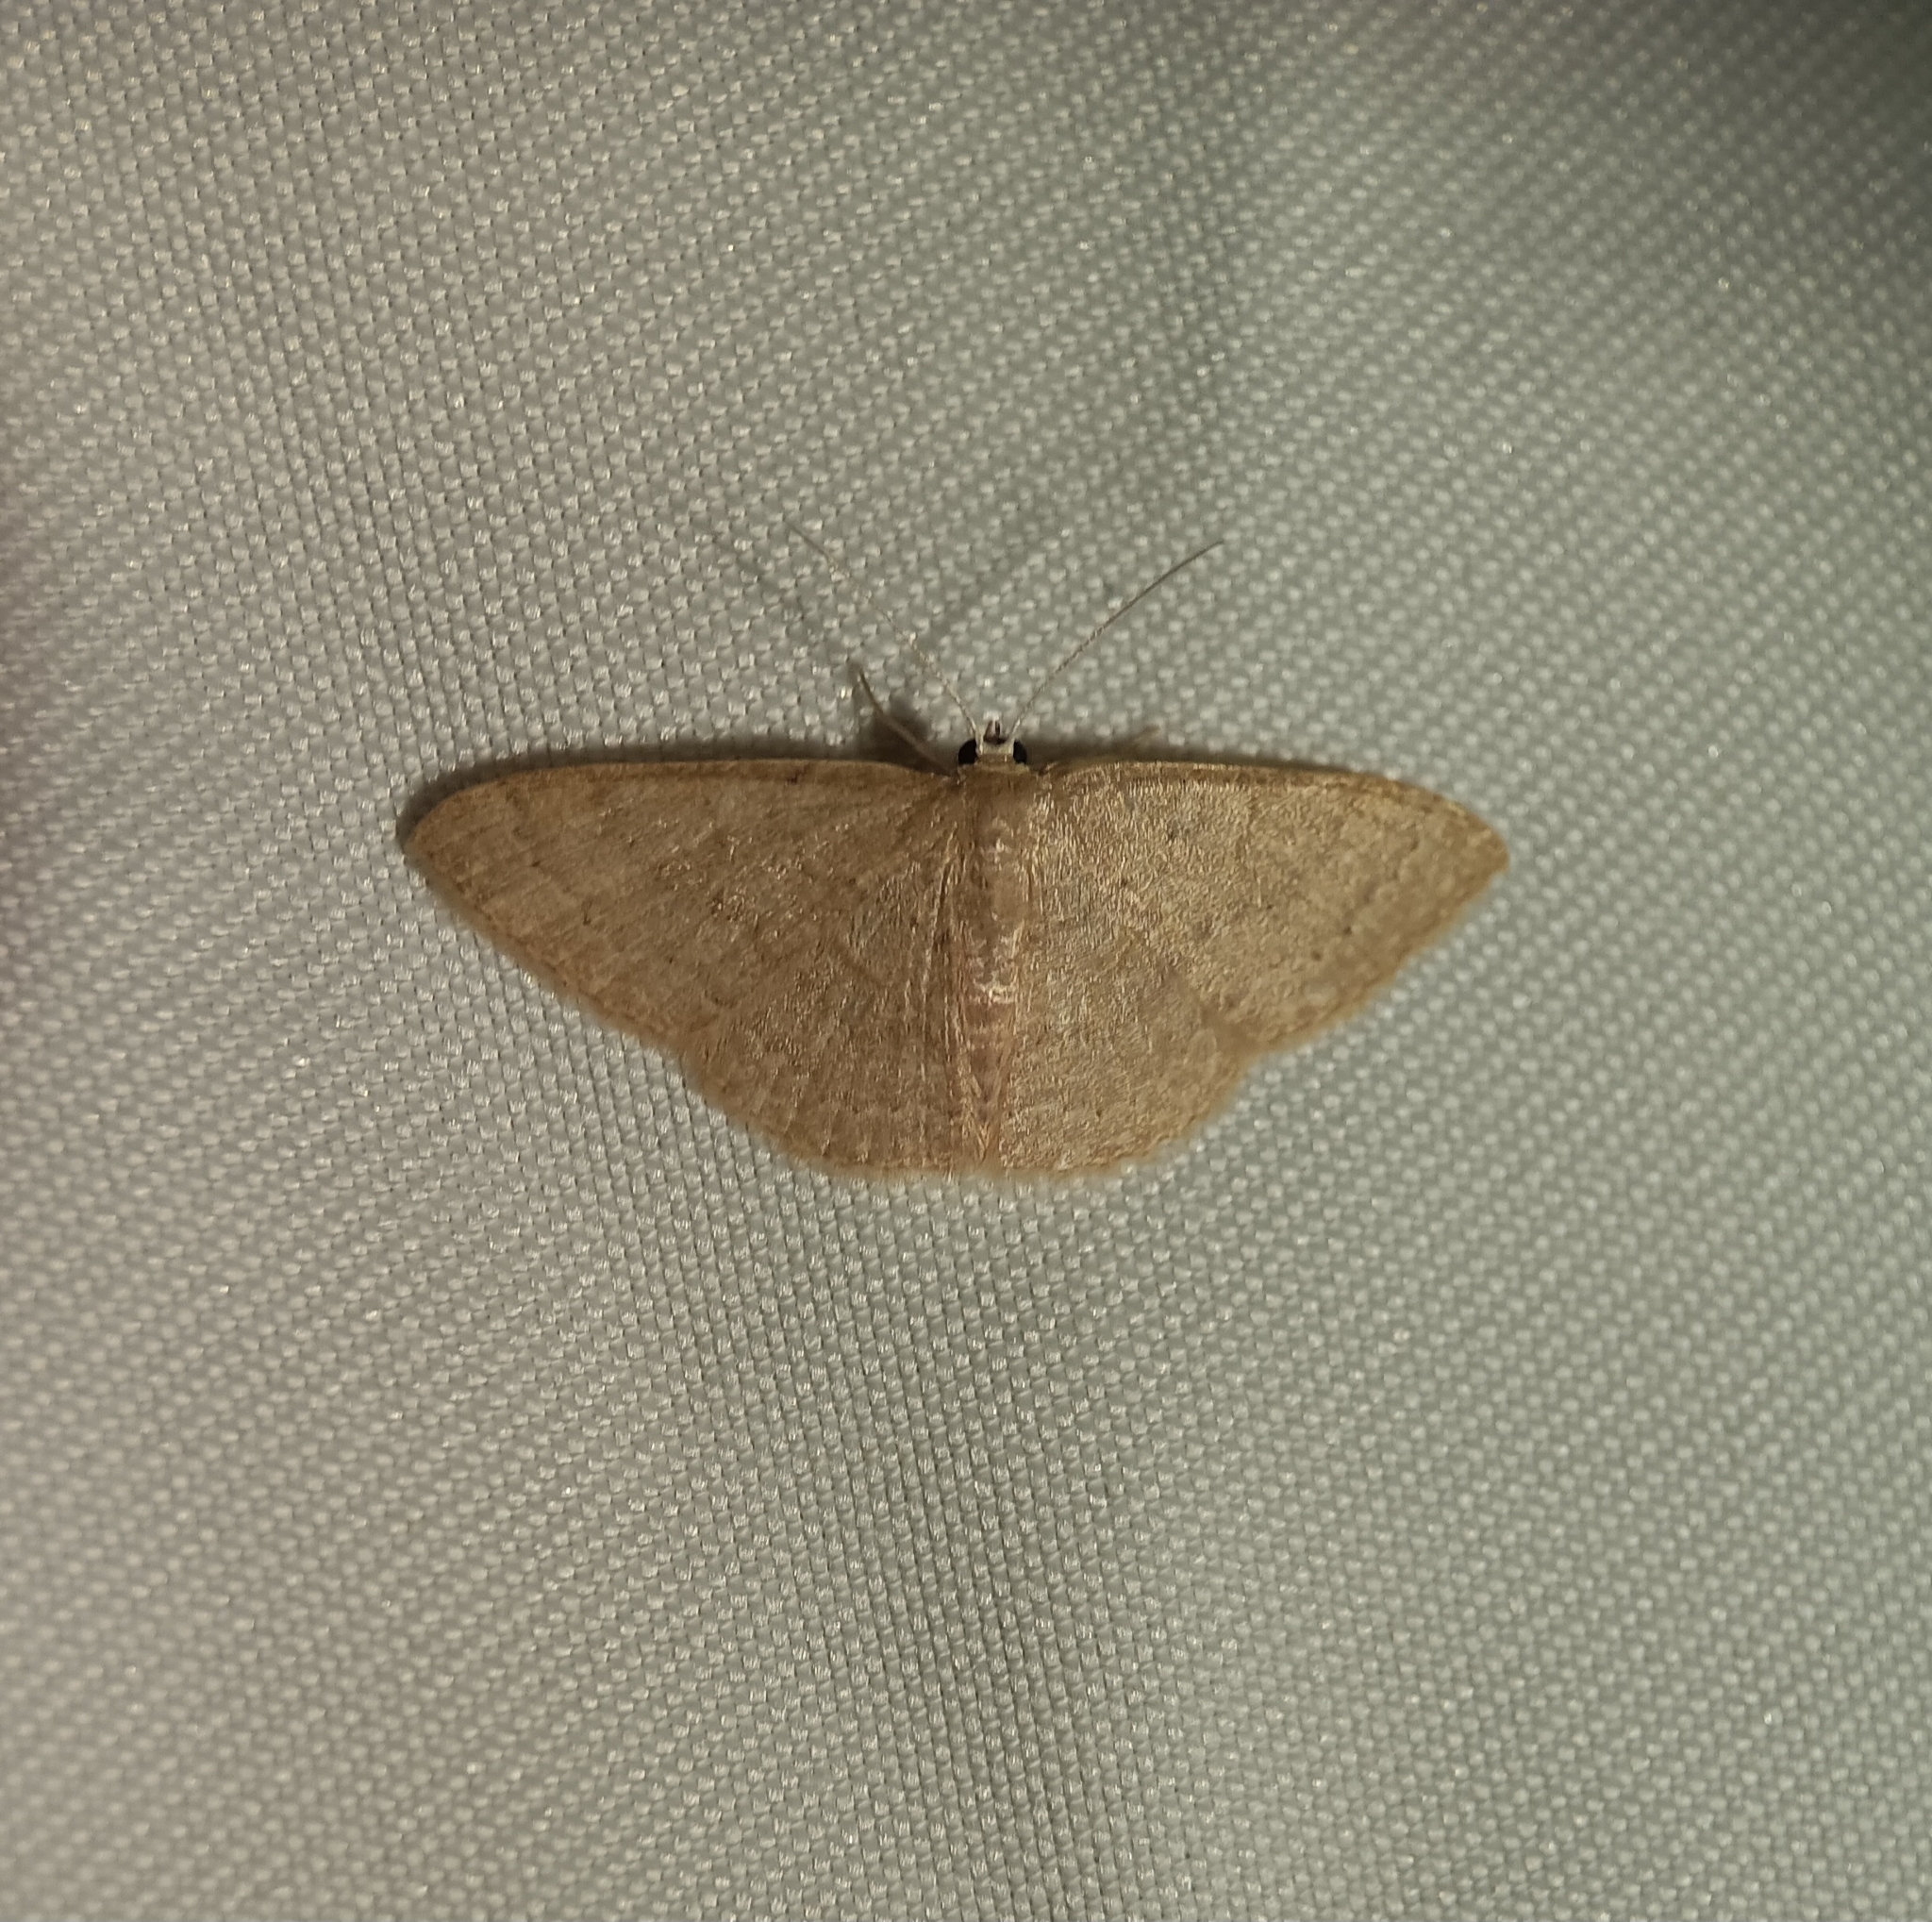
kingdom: Animalia
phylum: Arthropoda
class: Insecta
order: Lepidoptera
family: Geometridae
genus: Pleuroprucha
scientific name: Pleuroprucha insulsaria
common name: Common tan wave
